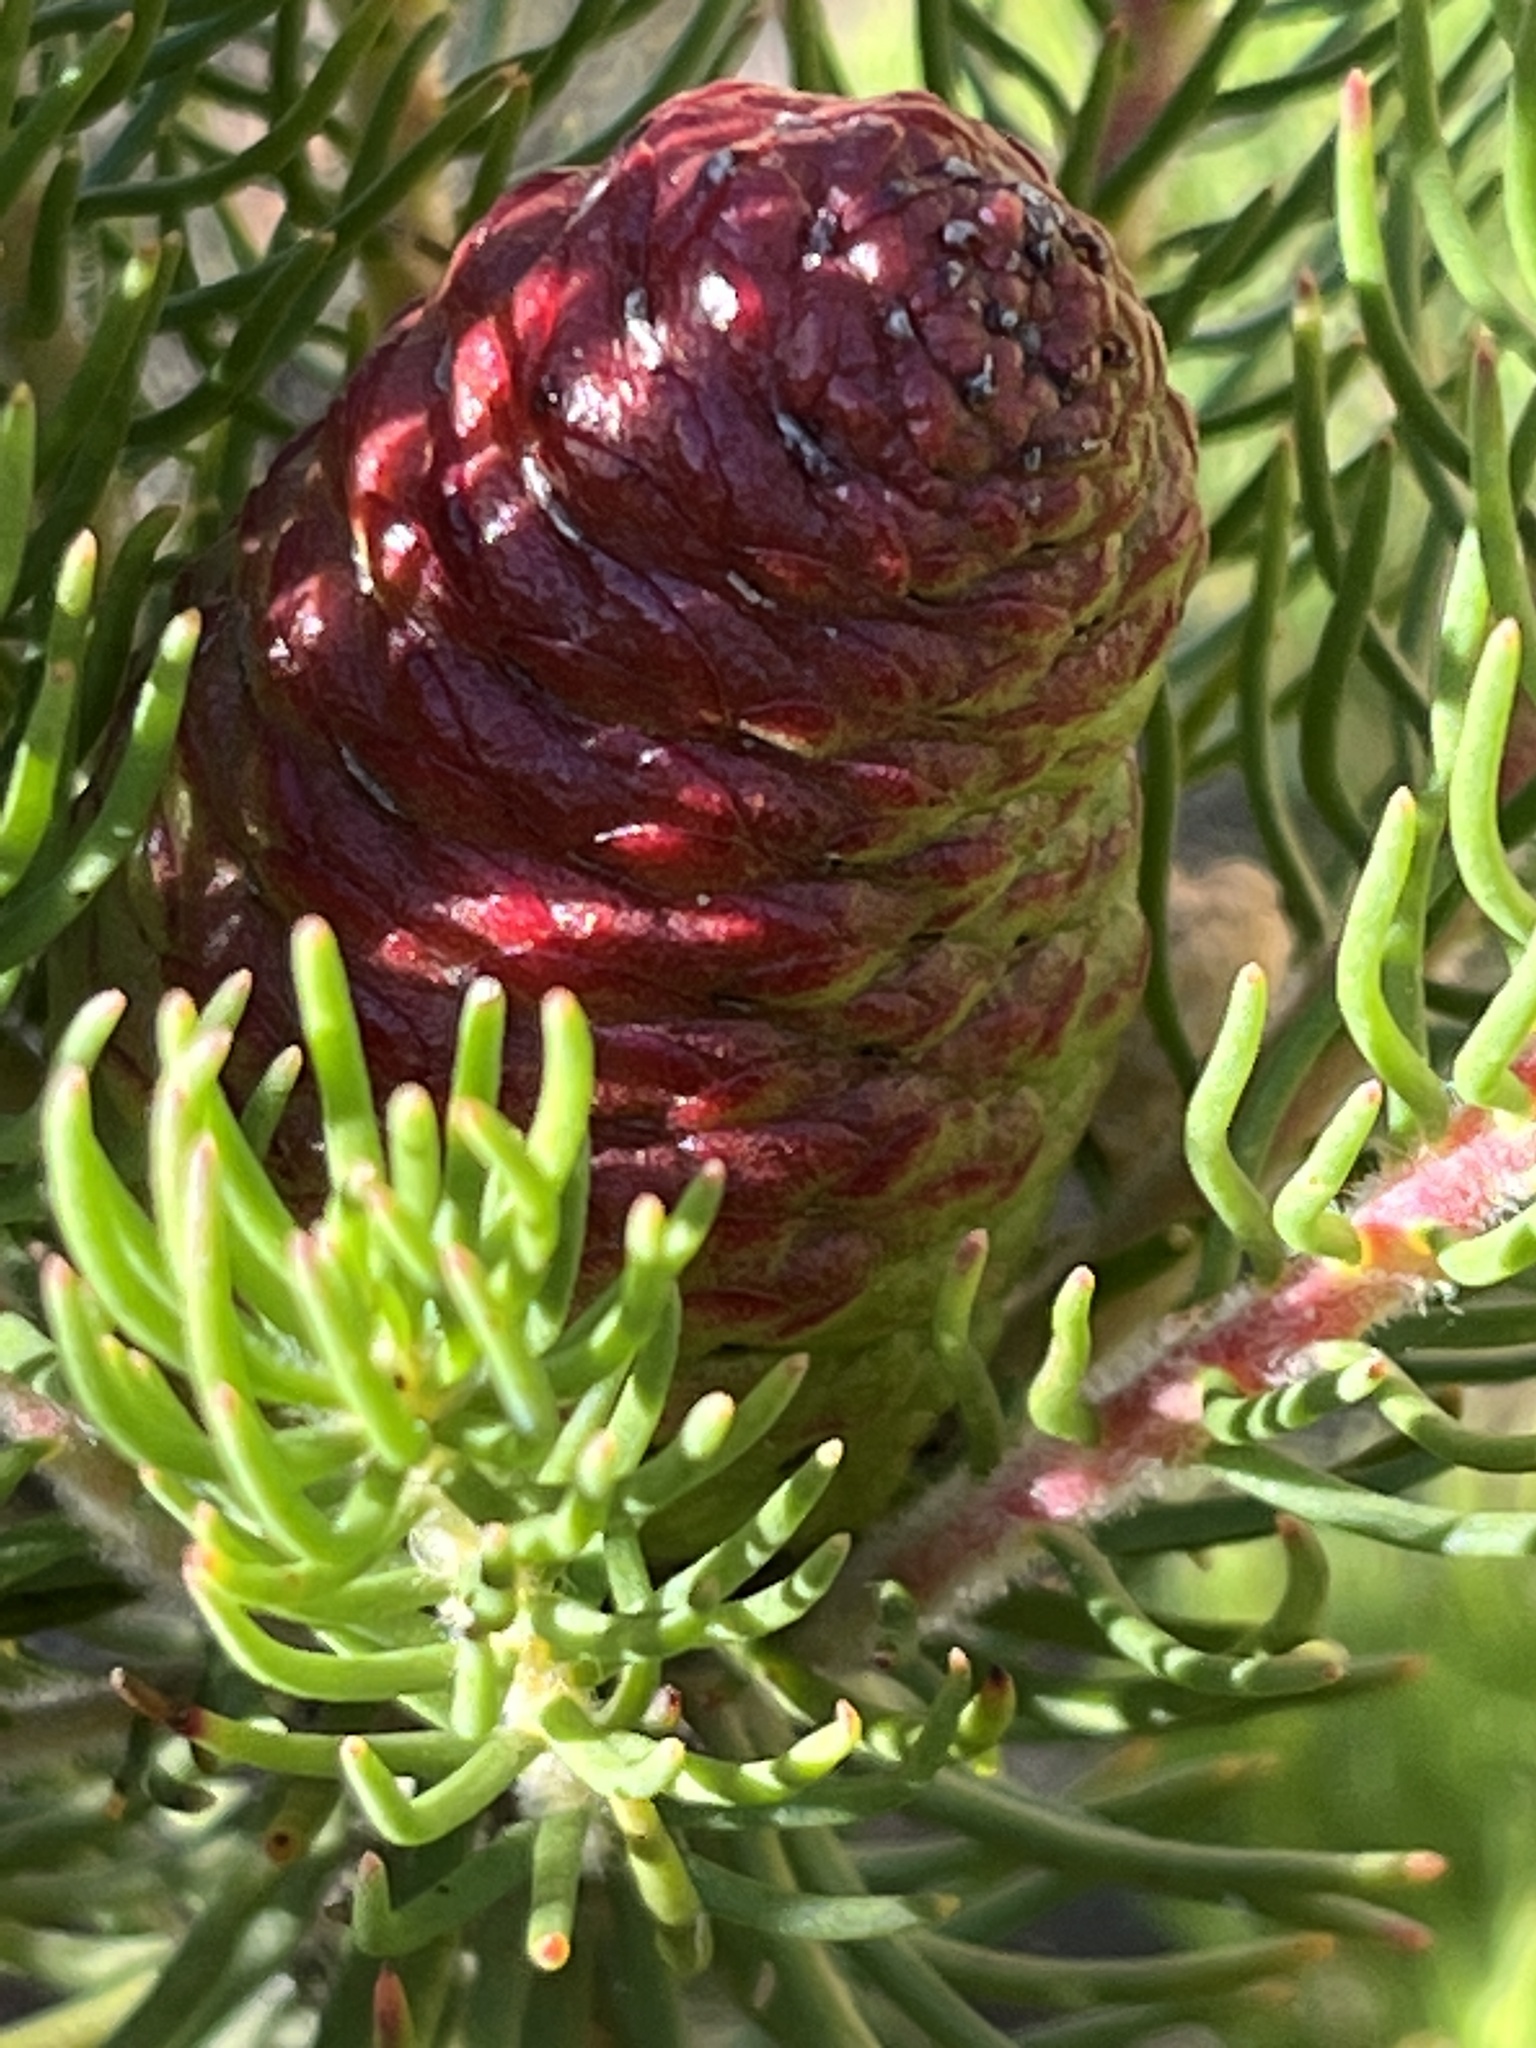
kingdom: Plantae
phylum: Tracheophyta
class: Magnoliopsida
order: Proteales
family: Proteaceae
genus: Leucadendron
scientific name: Leucadendron teretifolium
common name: Needle-leaf conebush
